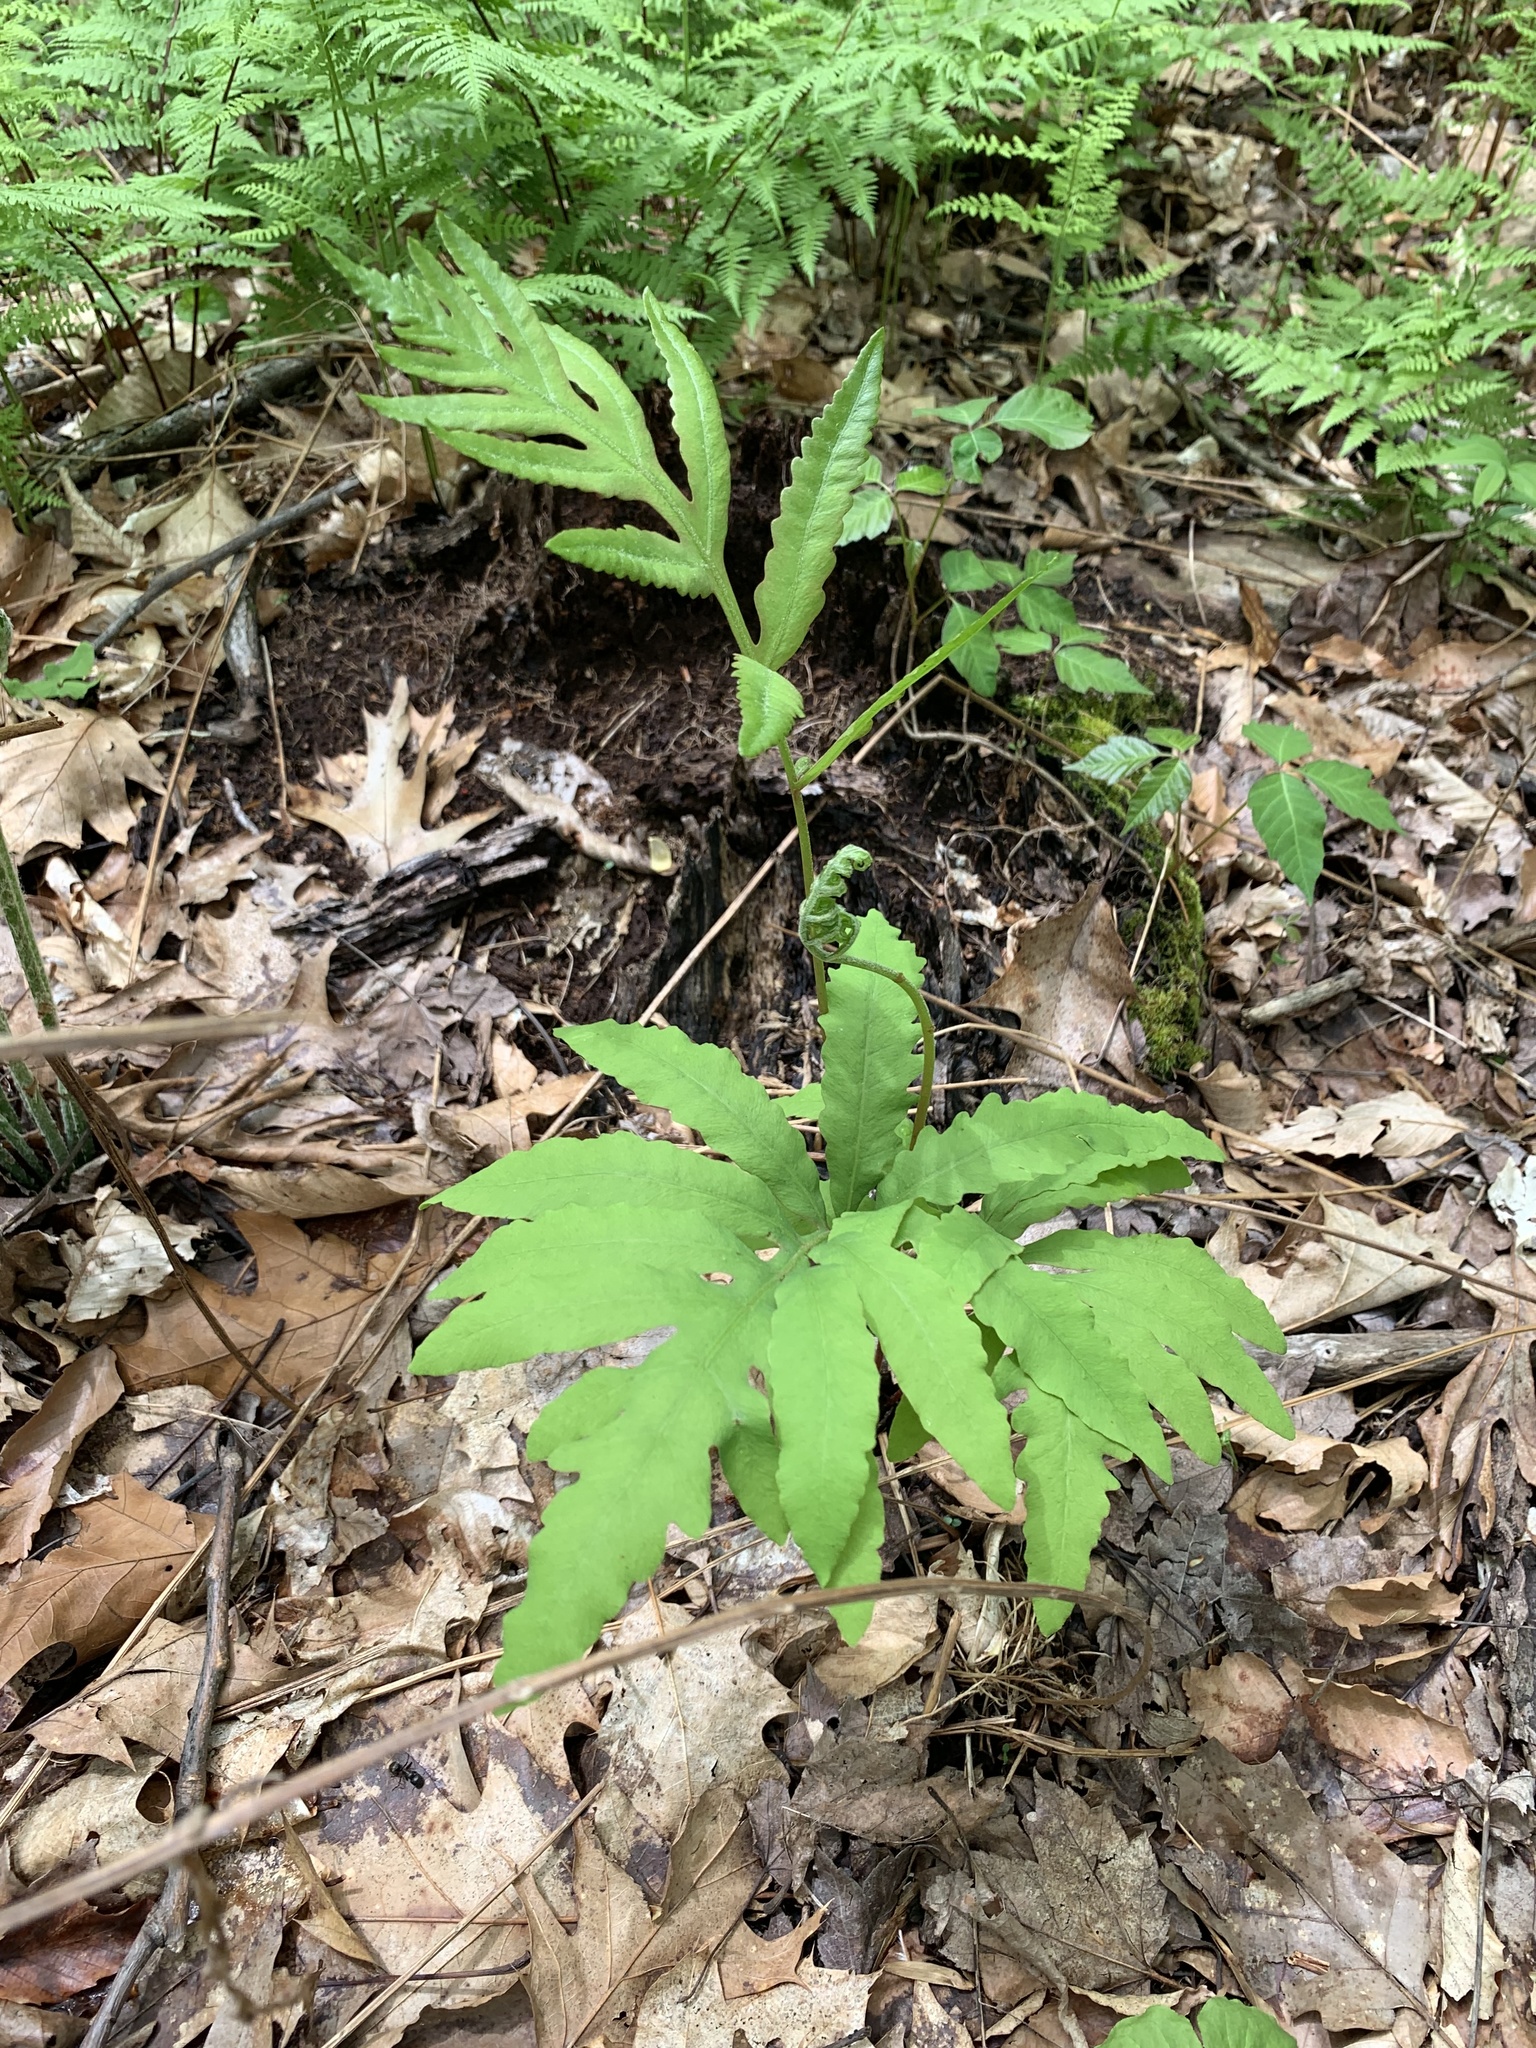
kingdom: Plantae
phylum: Tracheophyta
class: Polypodiopsida
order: Polypodiales
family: Onocleaceae
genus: Onoclea
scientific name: Onoclea sensibilis
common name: Sensitive fern
